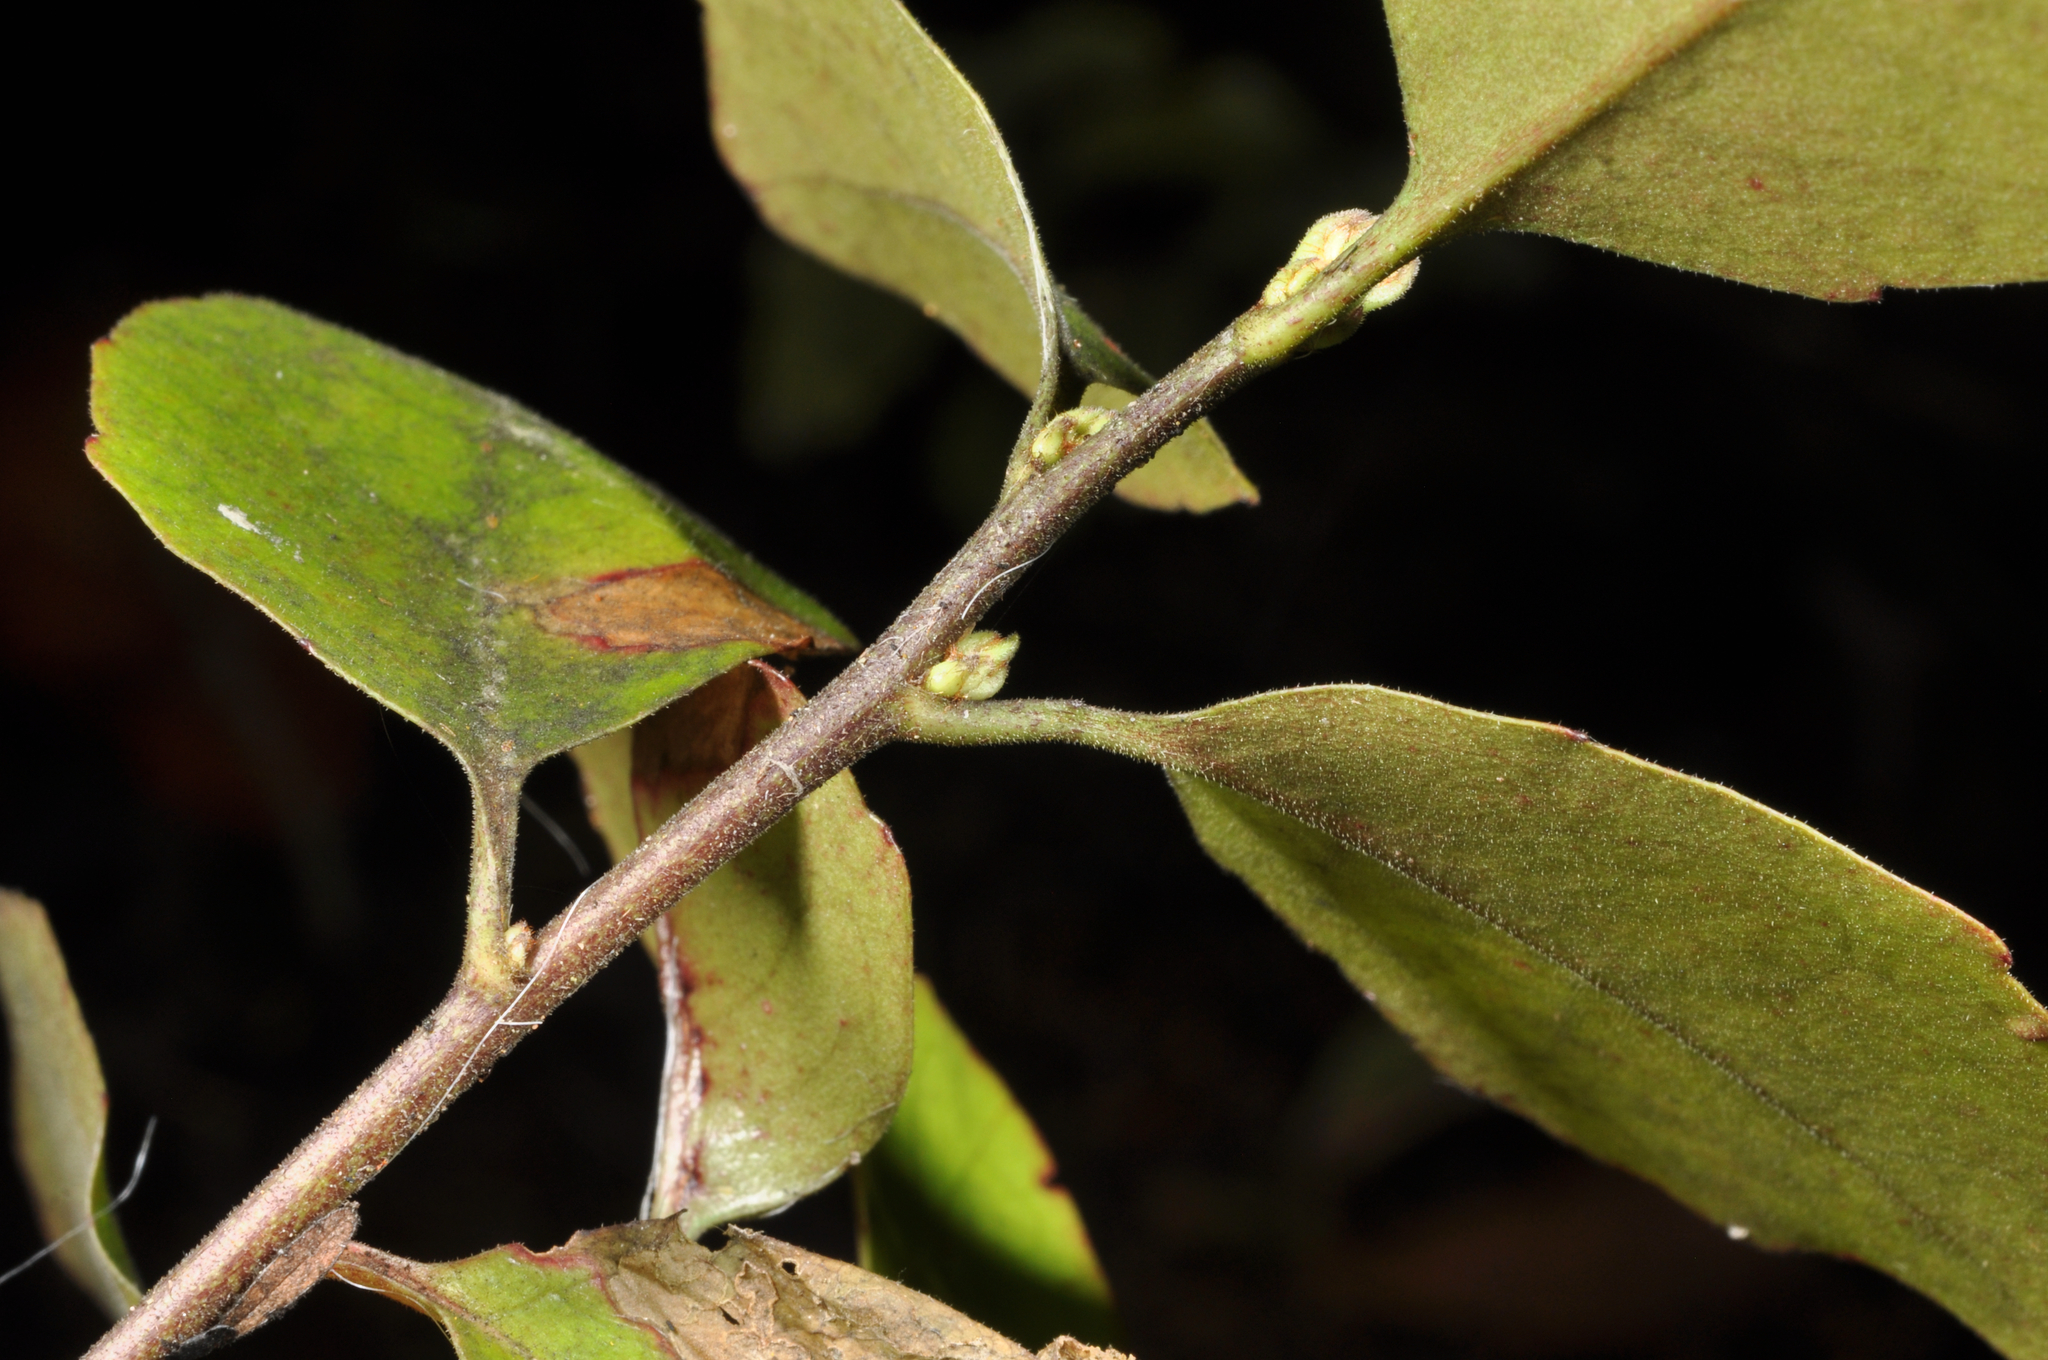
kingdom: Plantae
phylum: Tracheophyta
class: Magnoliopsida
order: Asterales
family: Alseuosmiaceae
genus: Alseuosmia
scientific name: Alseuosmia banksii
